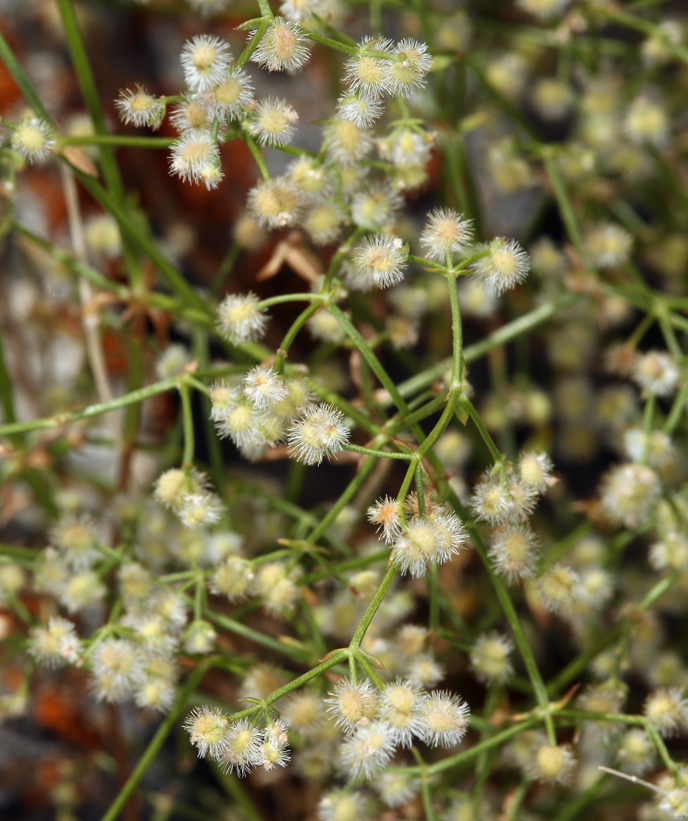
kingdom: Plantae
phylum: Tracheophyta
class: Magnoliopsida
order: Gentianales
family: Rubiaceae
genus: Galium
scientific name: Galium stellatum
